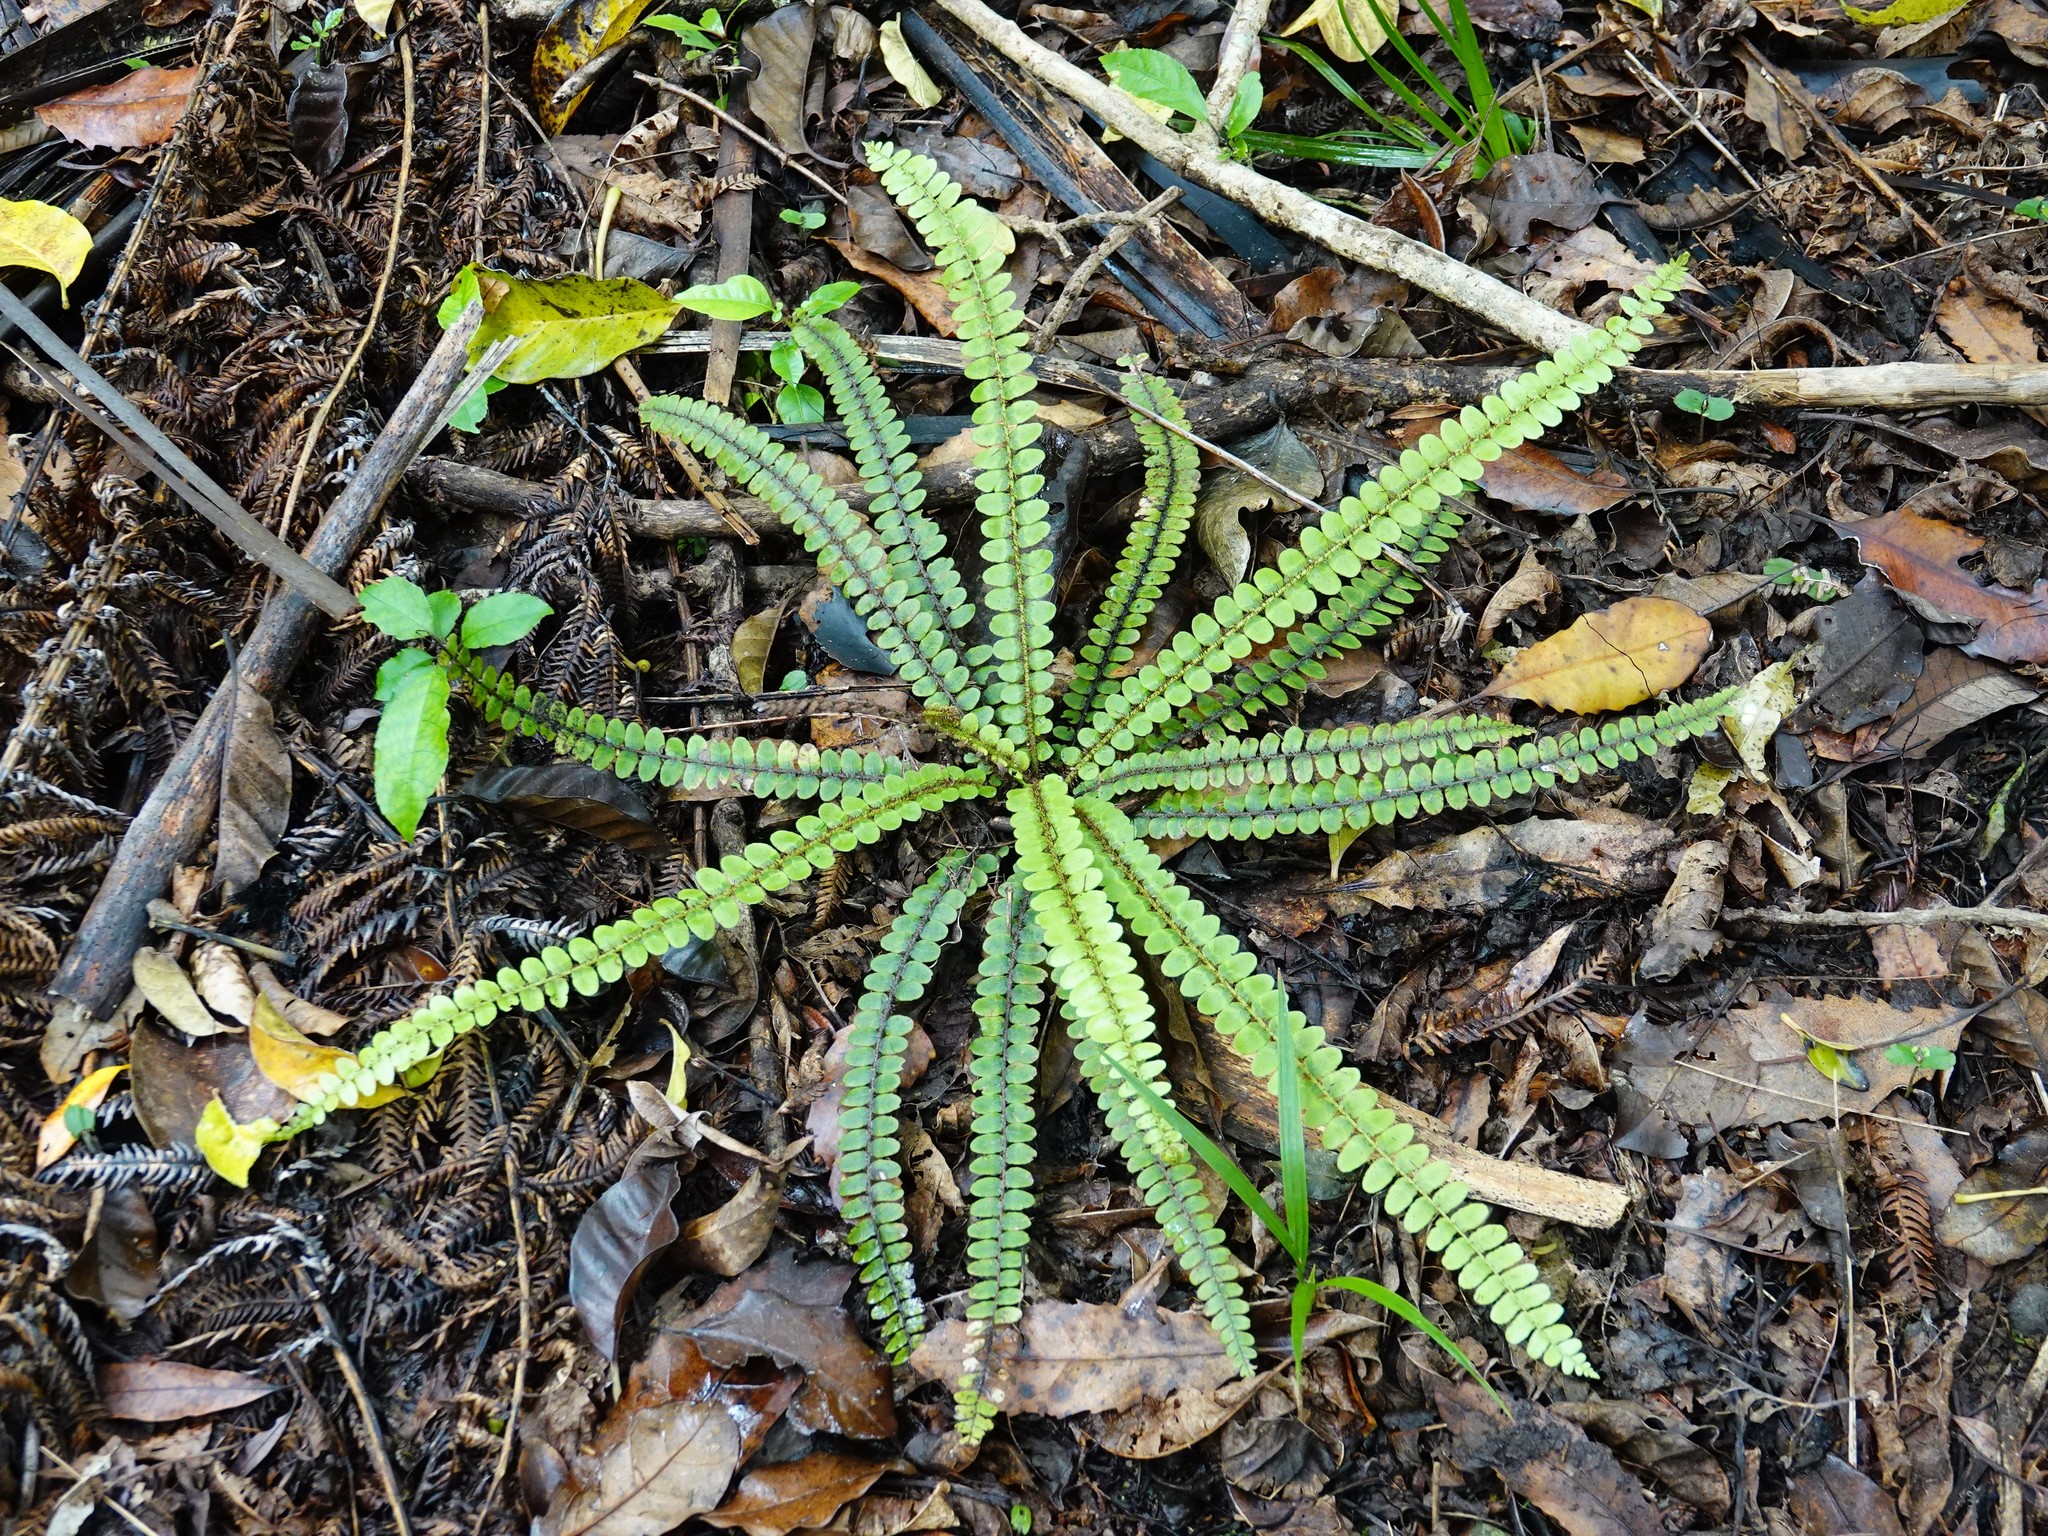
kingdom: Plantae
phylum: Tracheophyta
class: Polypodiopsida
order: Polypodiales
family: Blechnaceae
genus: Cranfillia
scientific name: Cranfillia fluviatilis
